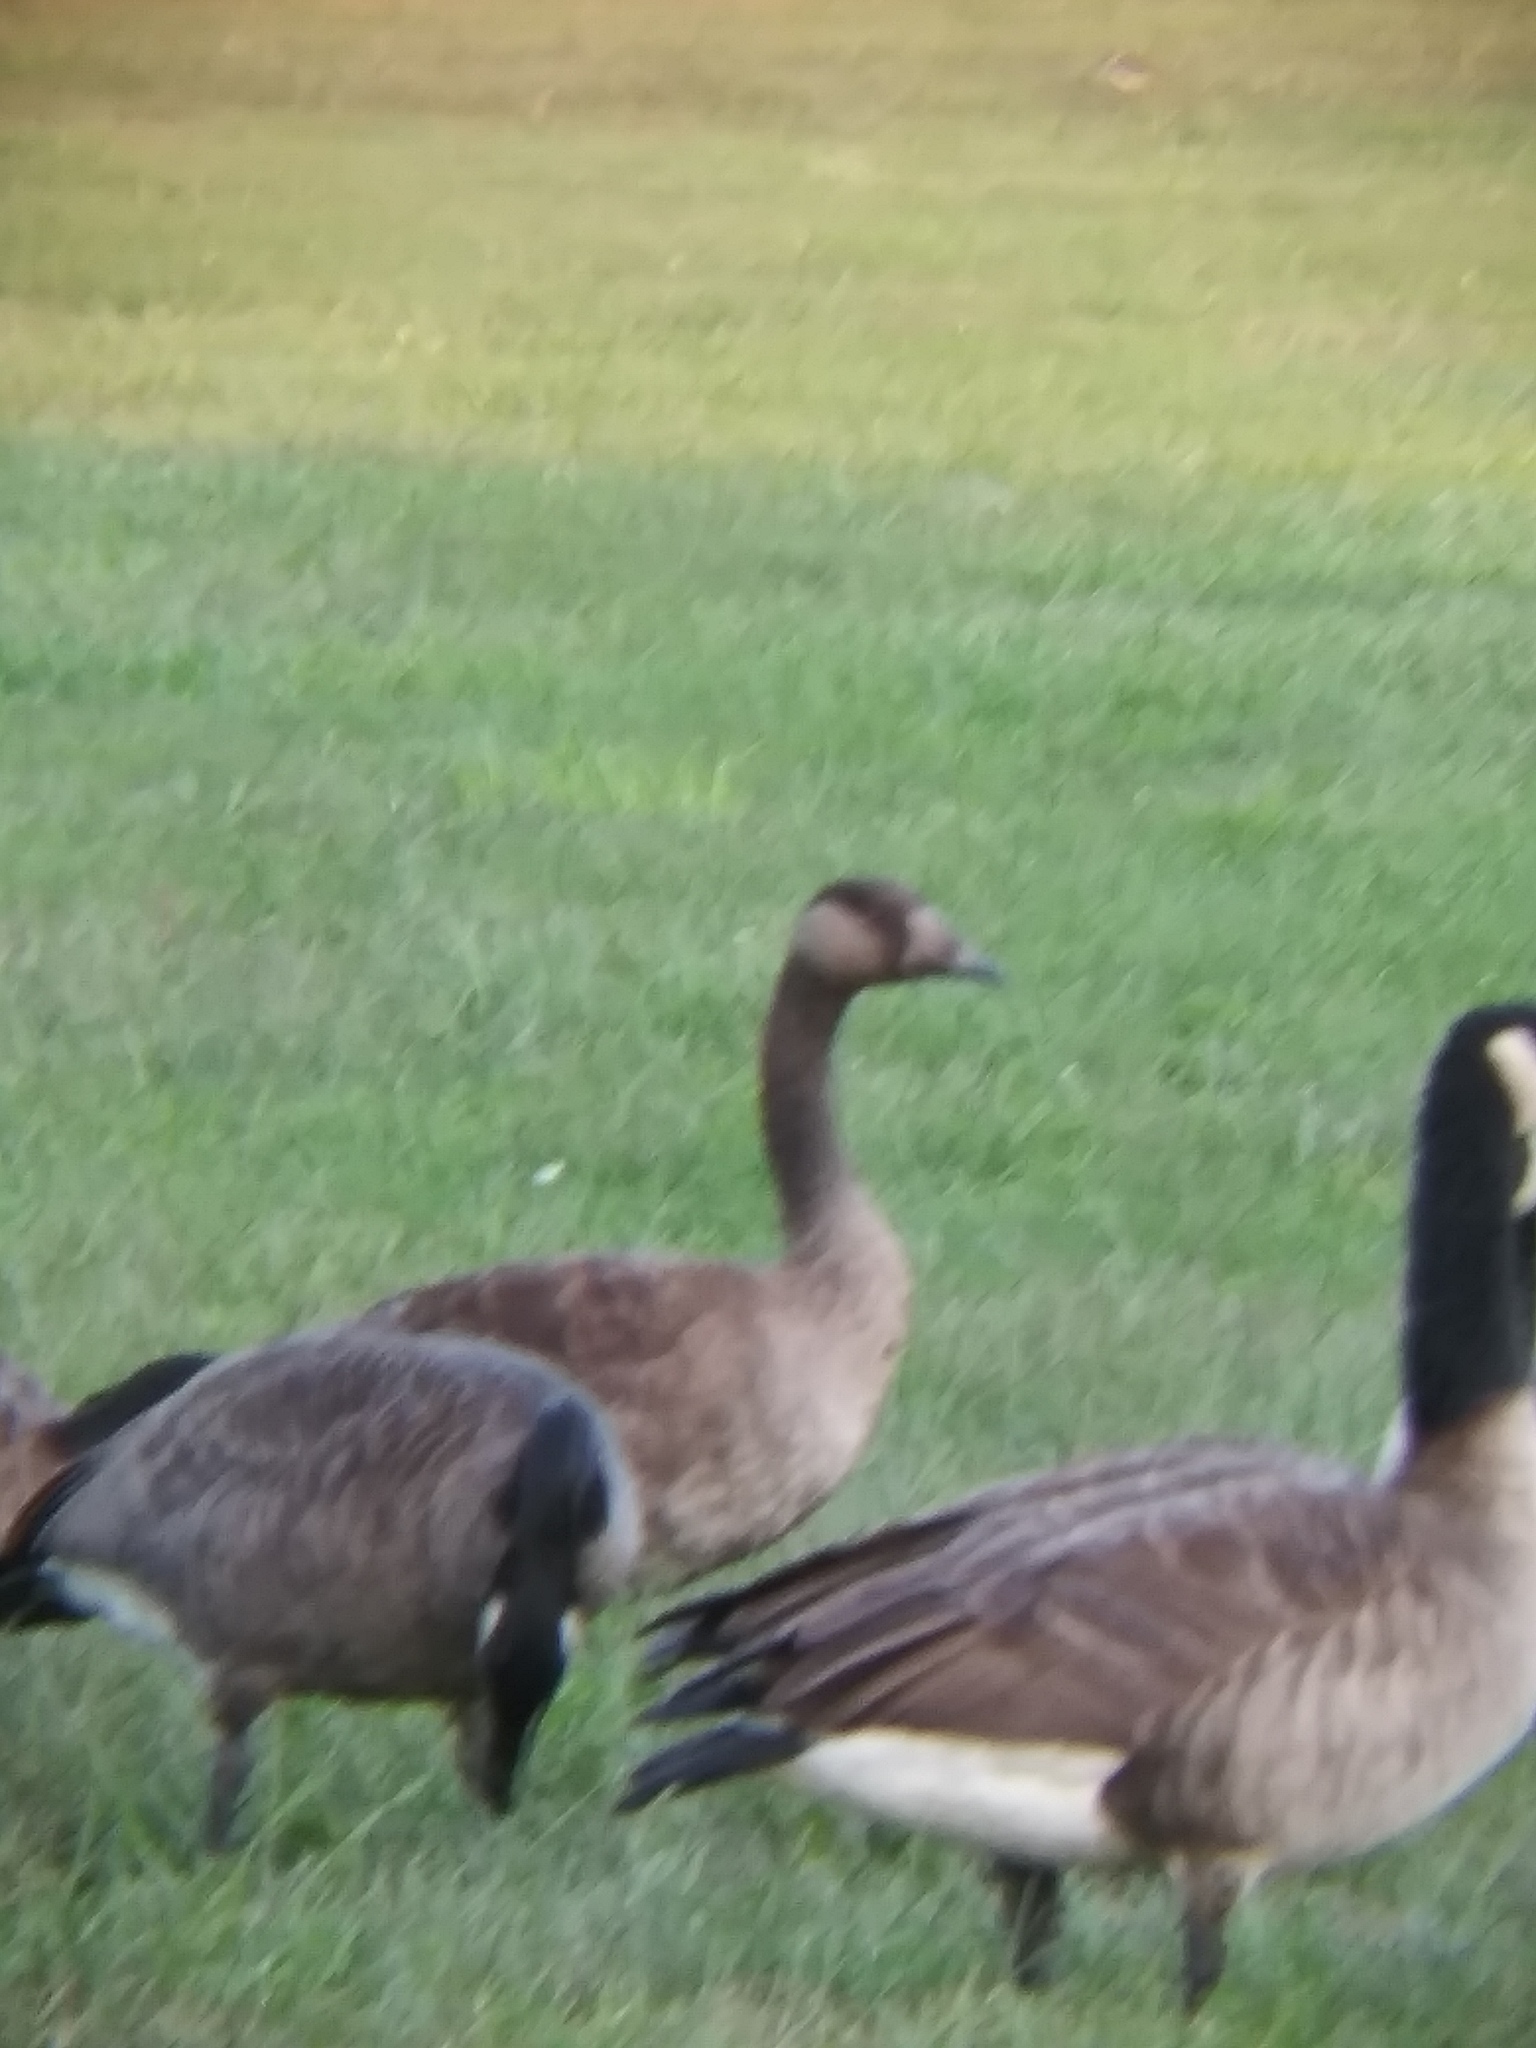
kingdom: Animalia
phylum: Chordata
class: Aves
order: Anseriformes
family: Anatidae
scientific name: Anatidae
